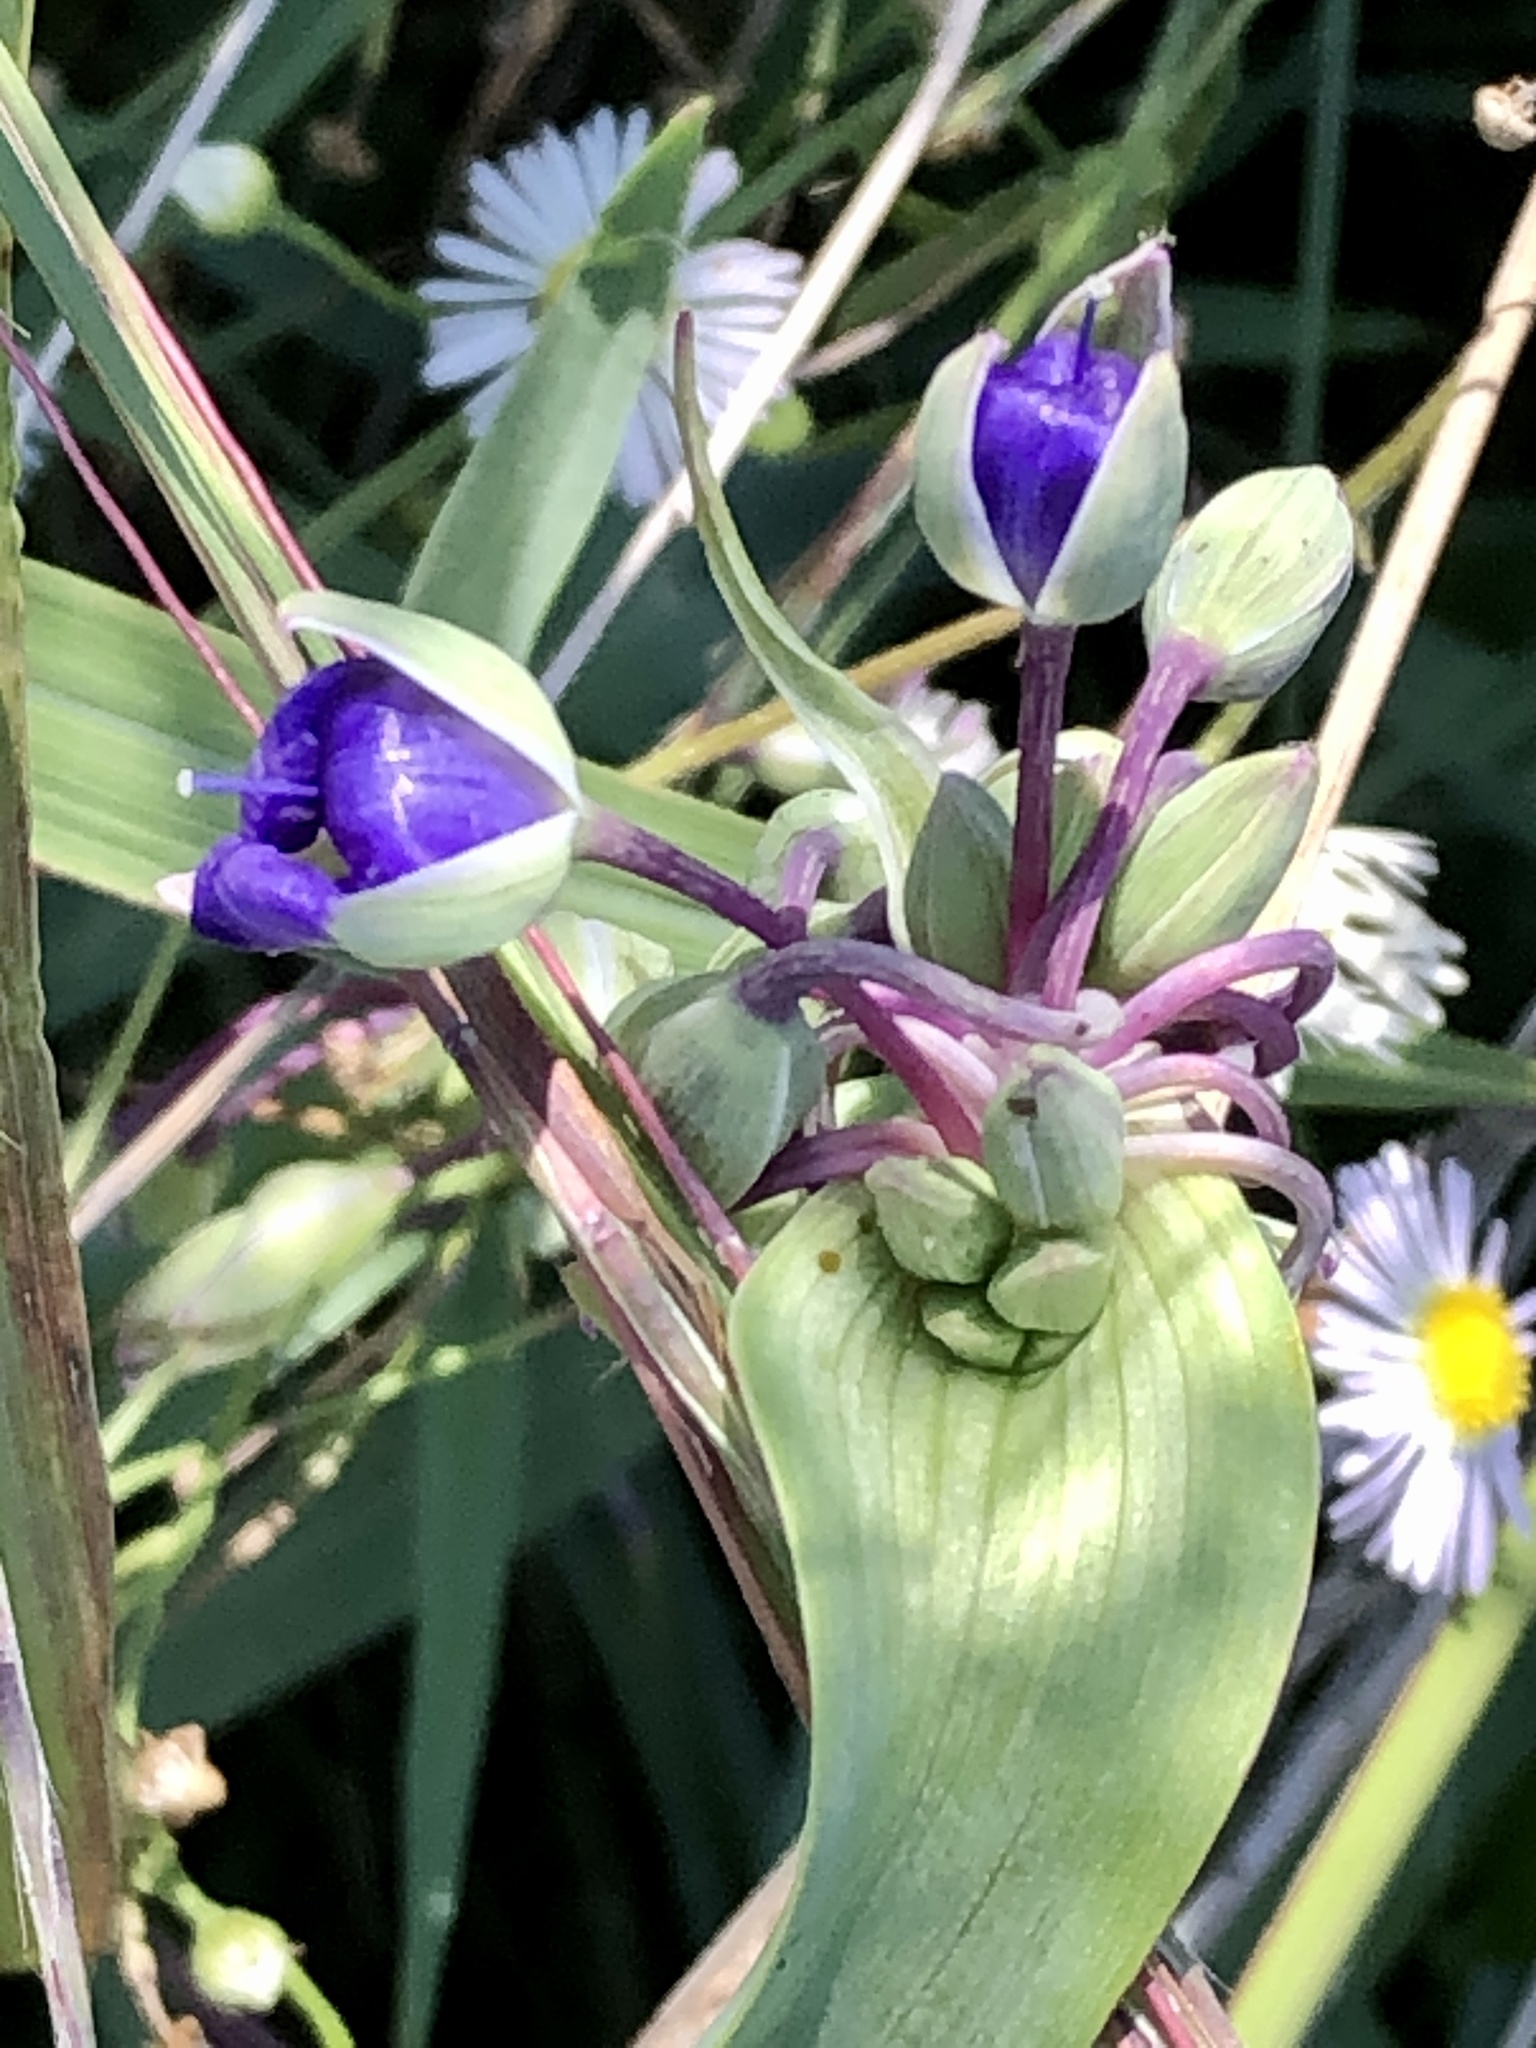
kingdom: Plantae
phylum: Tracheophyta
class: Liliopsida
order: Commelinales
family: Commelinaceae
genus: Tradescantia
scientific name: Tradescantia ohiensis
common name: Ohio spiderwort
